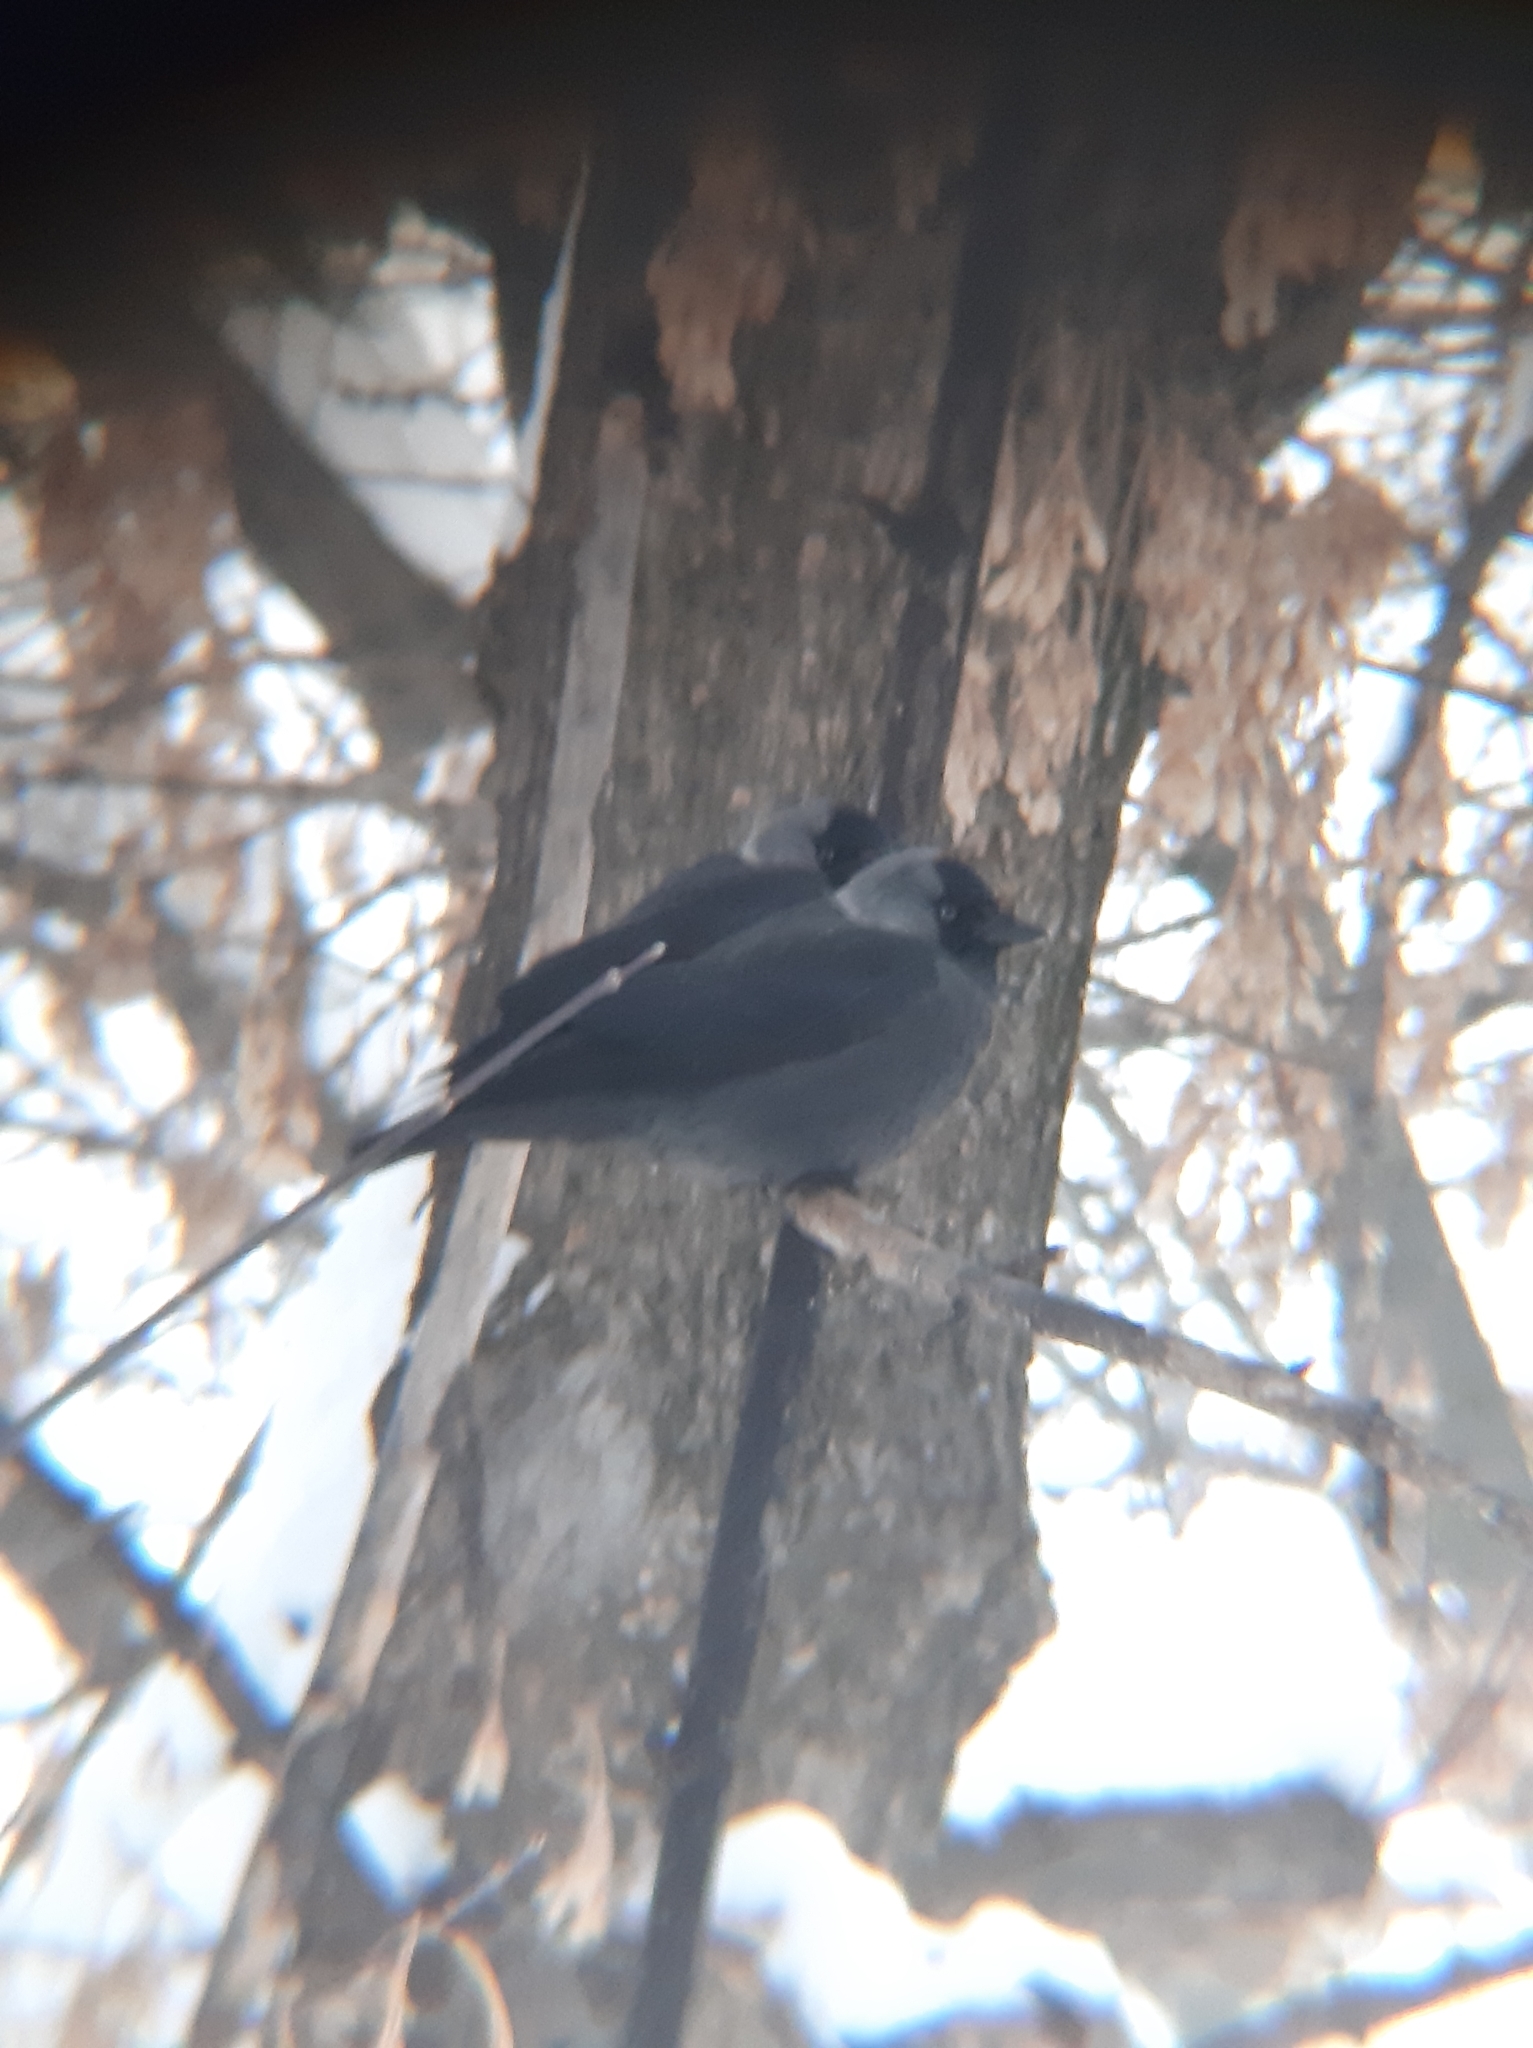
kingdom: Animalia
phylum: Chordata
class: Aves
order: Passeriformes
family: Corvidae
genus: Coloeus
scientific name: Coloeus monedula
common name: Western jackdaw
